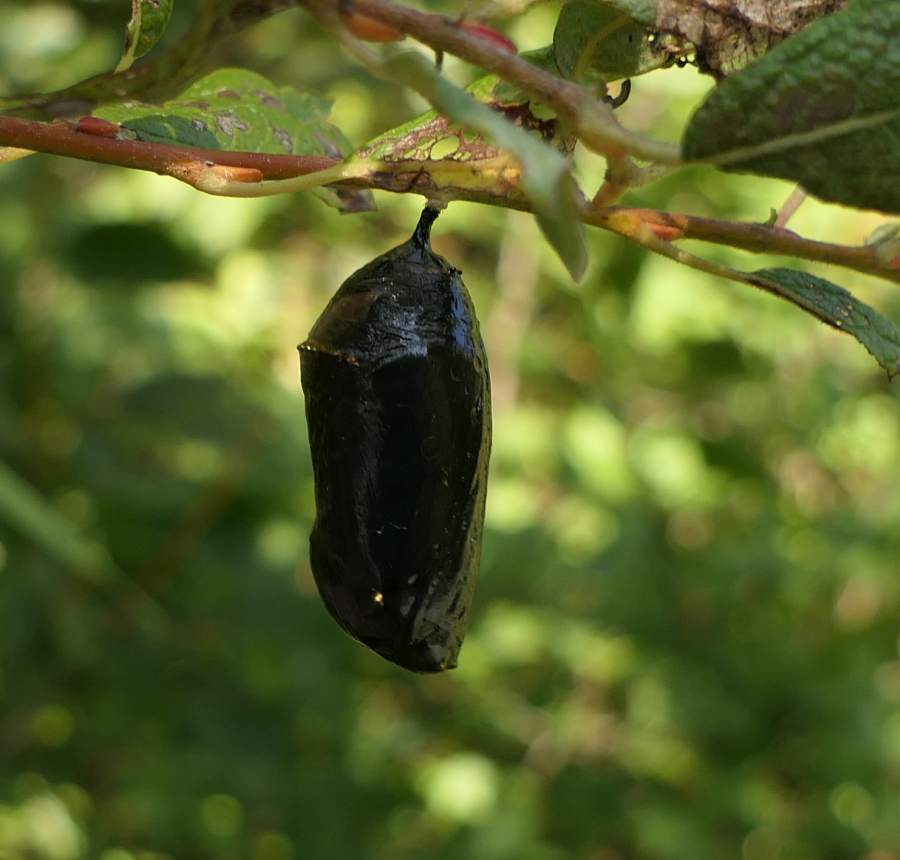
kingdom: Animalia
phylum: Arthropoda
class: Insecta
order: Lepidoptera
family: Nymphalidae
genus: Danaus
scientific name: Danaus plexippus
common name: Monarch
